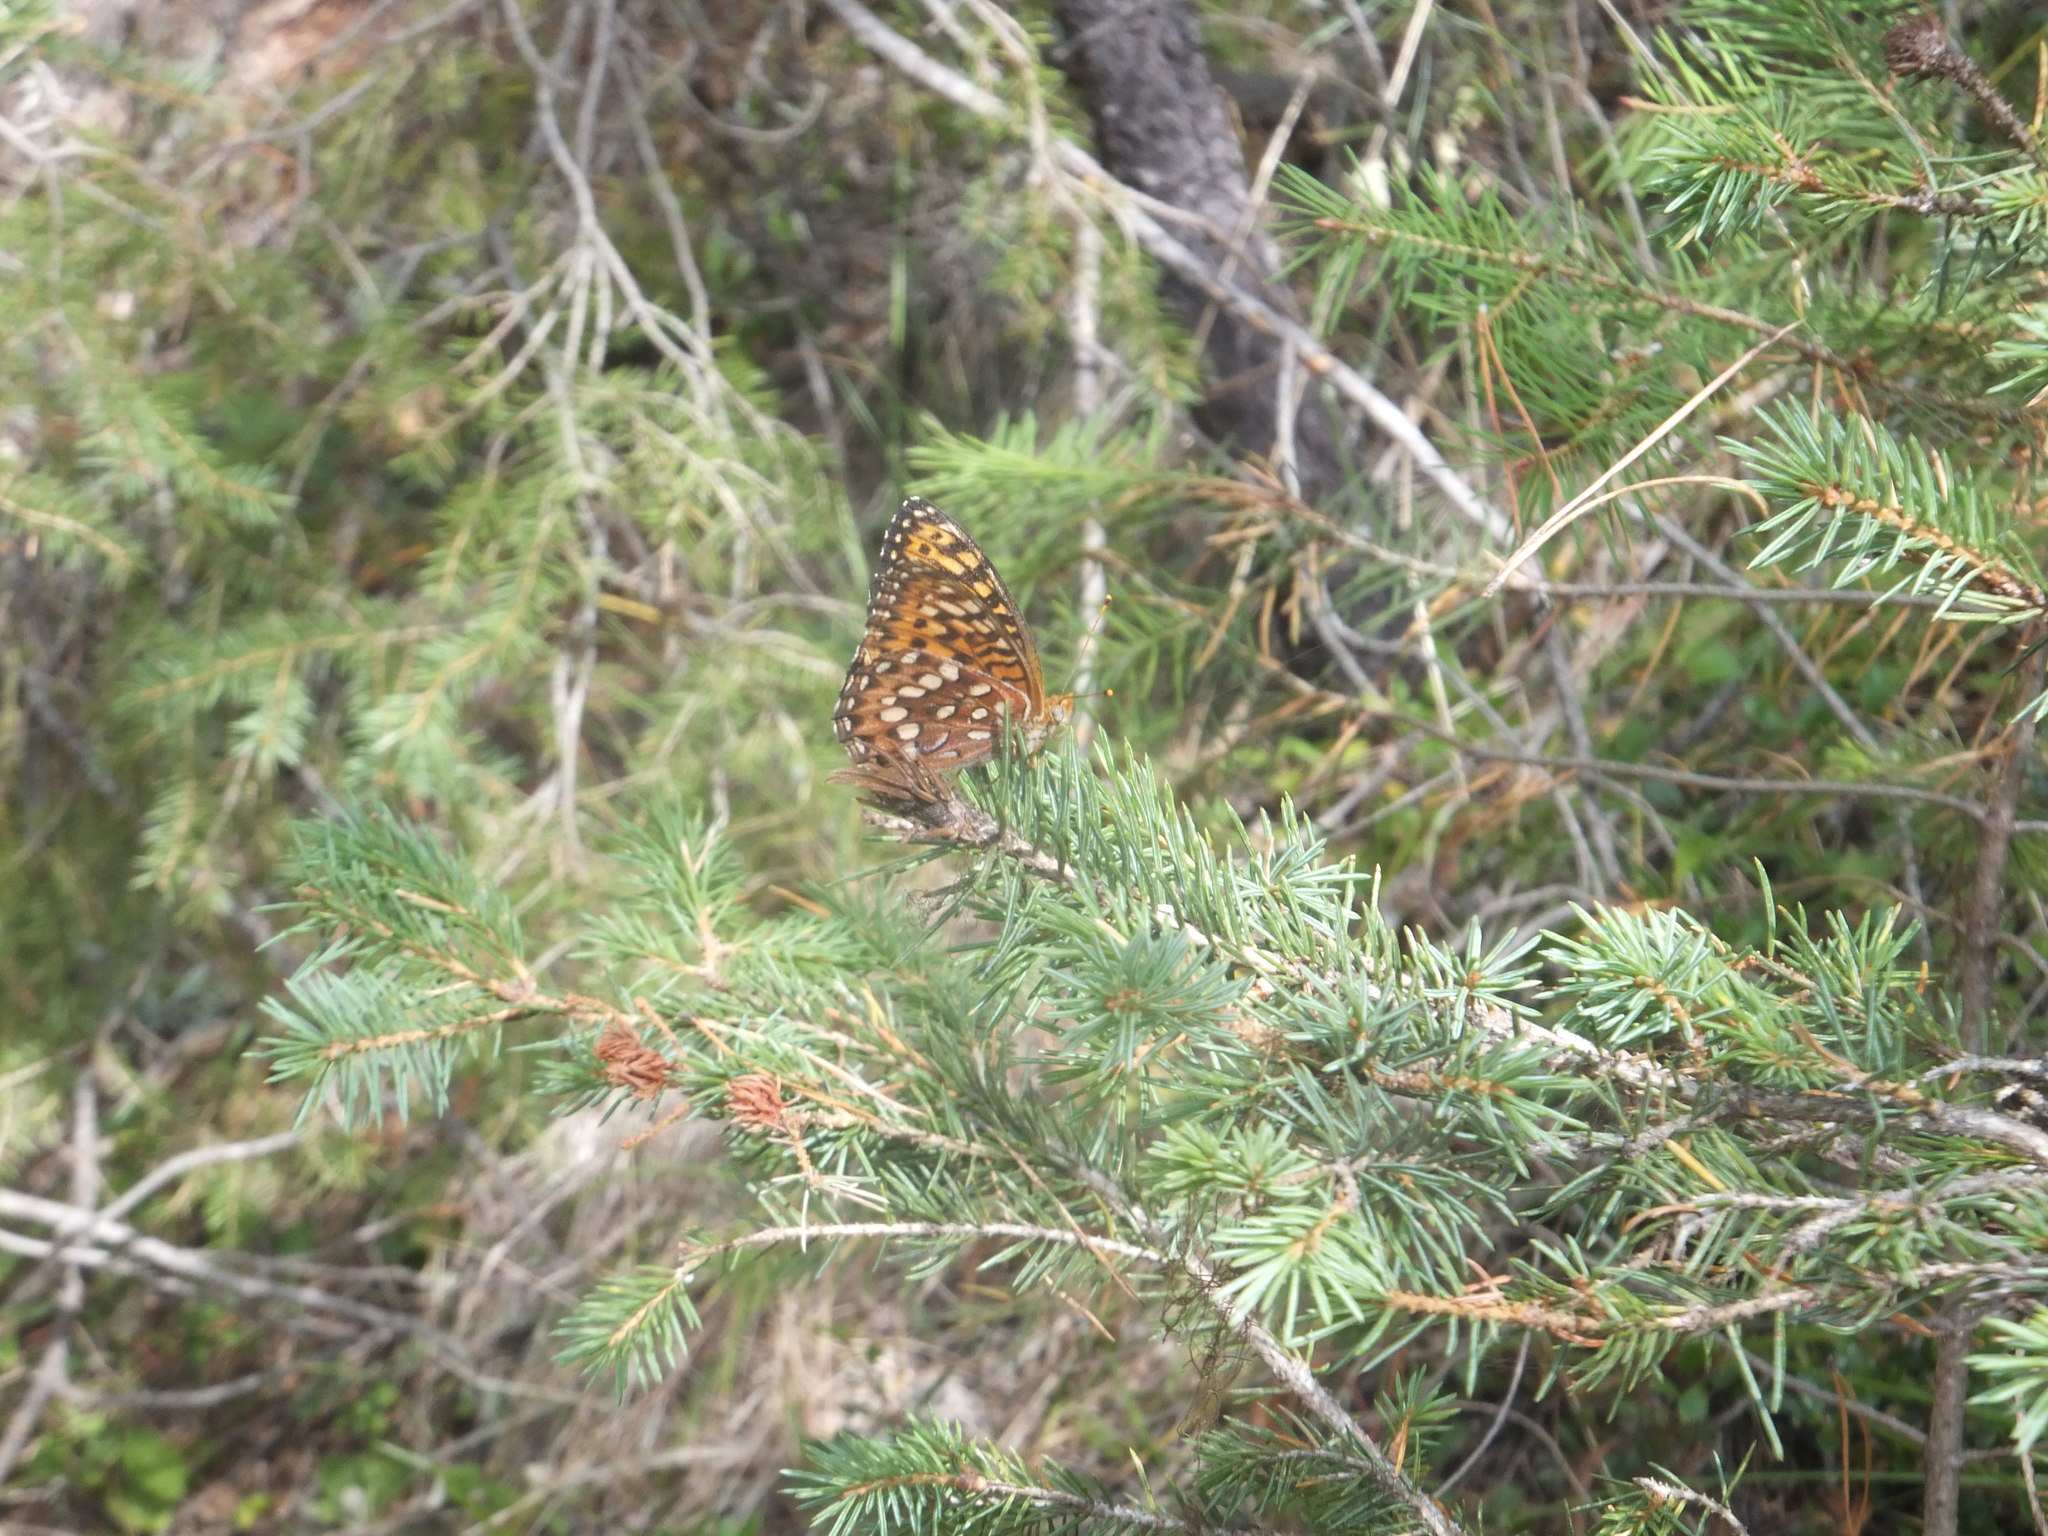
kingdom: Animalia
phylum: Arthropoda
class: Insecta
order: Lepidoptera
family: Nymphalidae
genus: Speyeria
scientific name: Speyeria hydaspe
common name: Hydaspe fritillary
